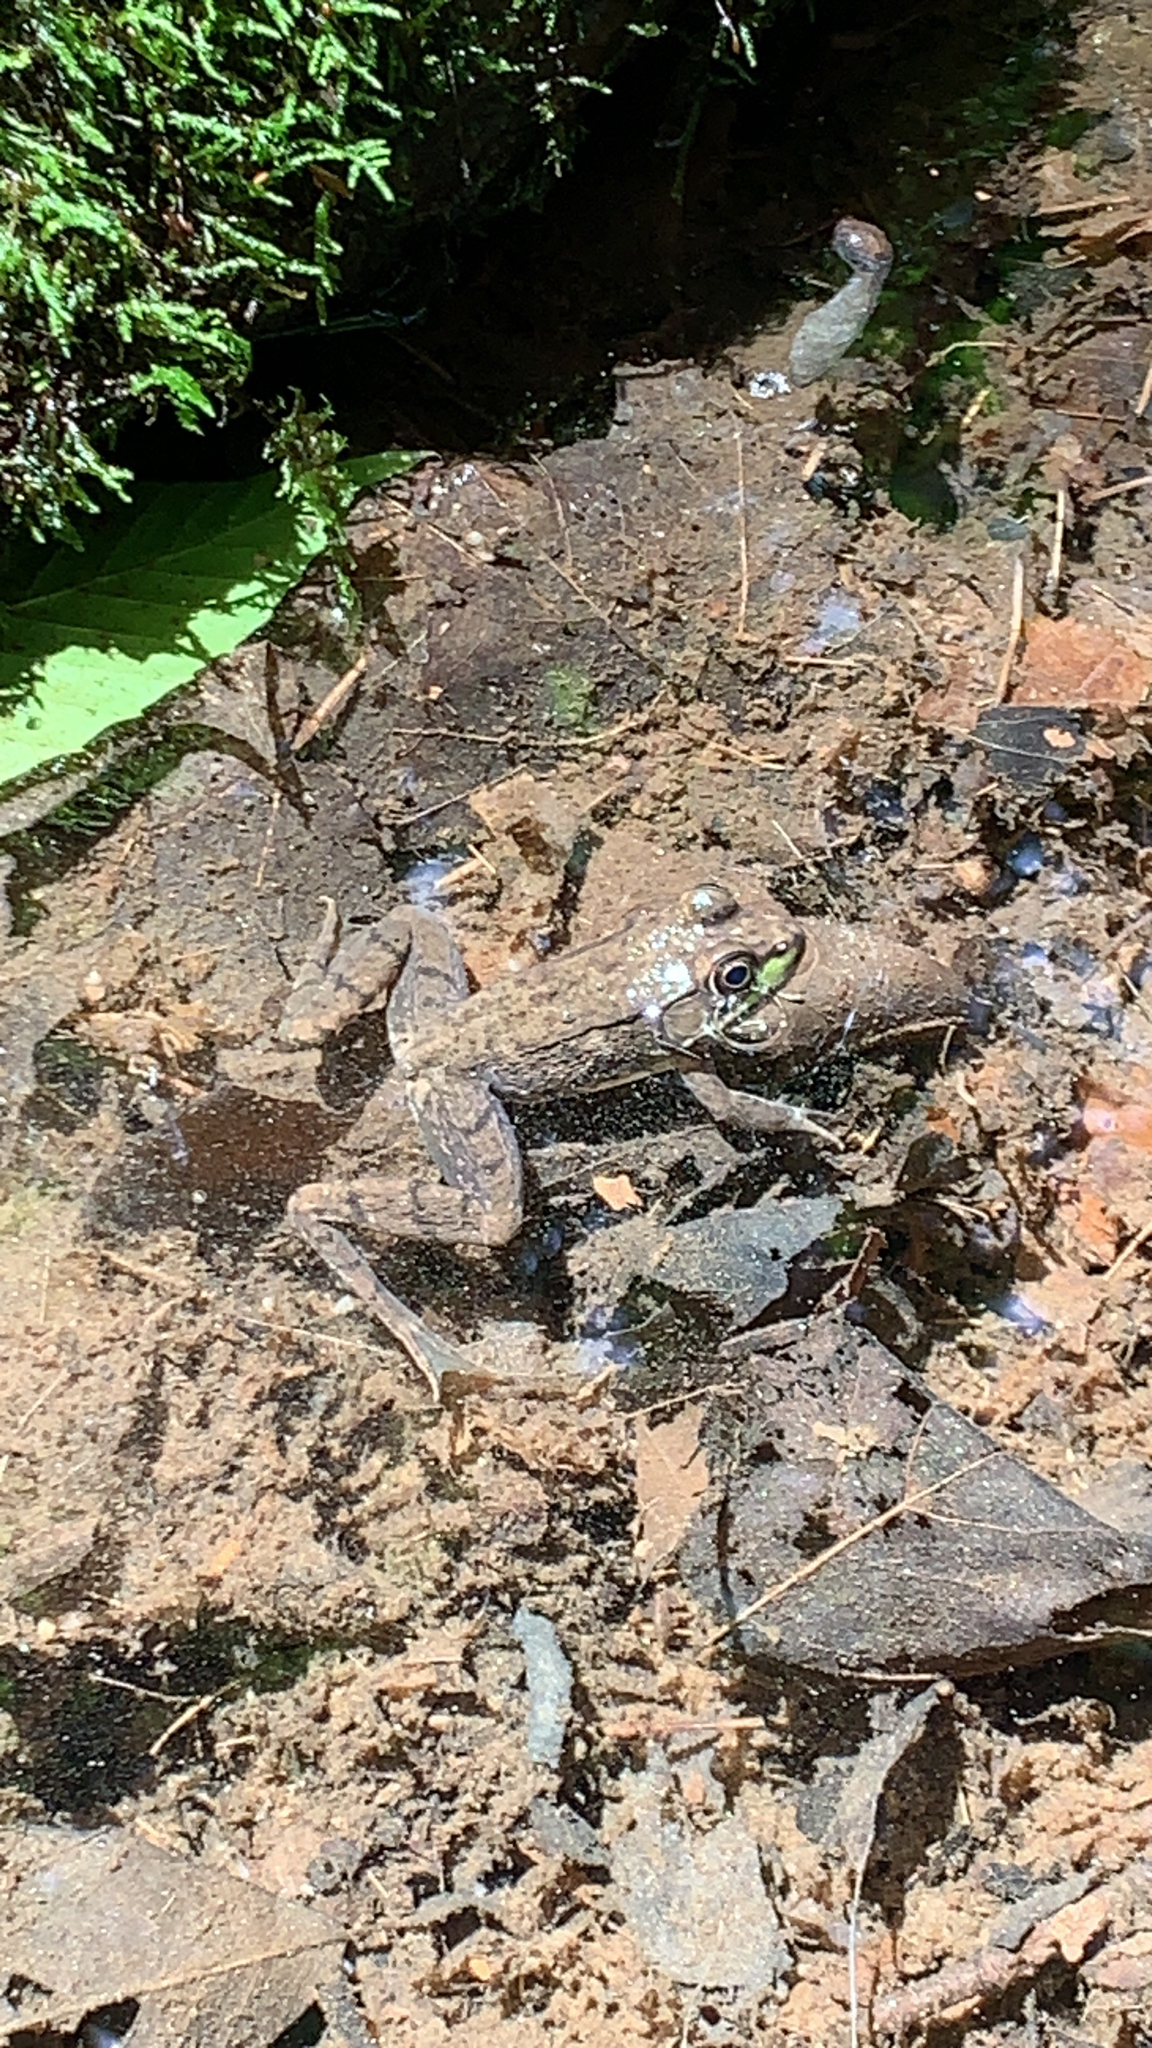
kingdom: Animalia
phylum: Chordata
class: Amphibia
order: Anura
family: Ranidae
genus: Lithobates
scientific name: Lithobates clamitans
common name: Green frog
